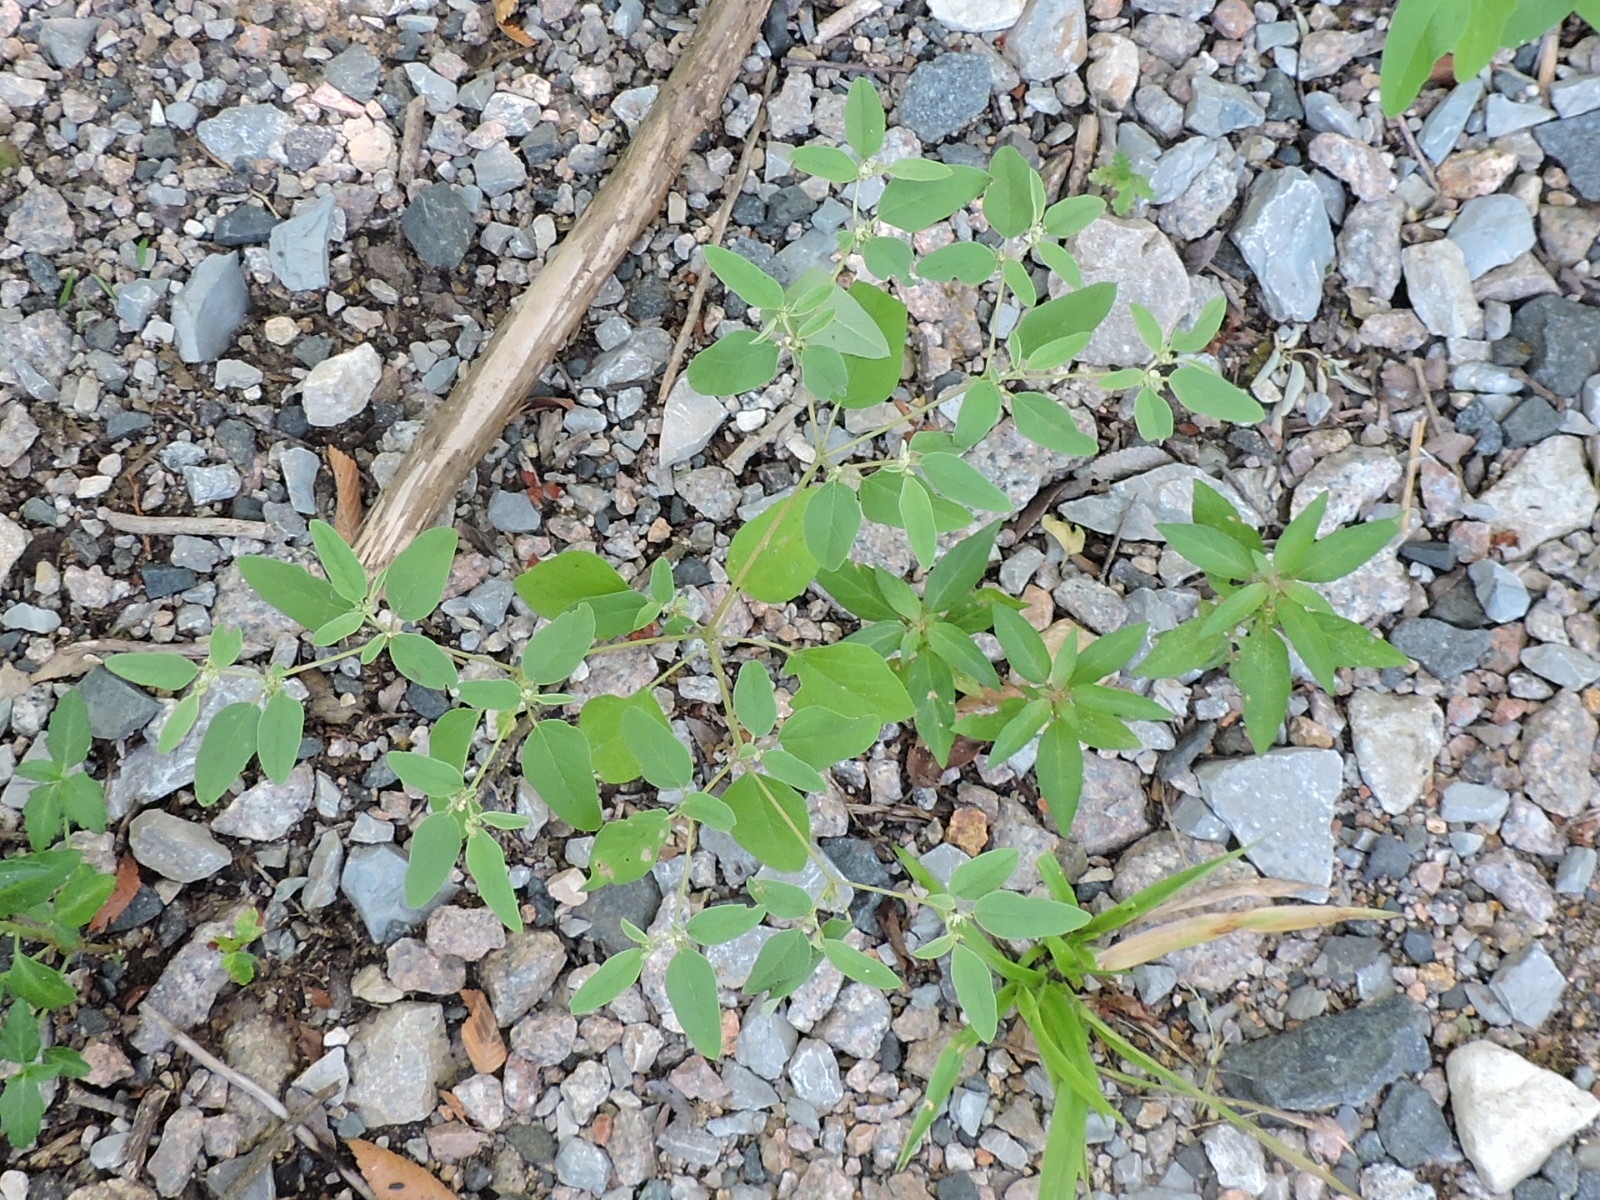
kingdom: Plantae
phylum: Tracheophyta
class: Magnoliopsida
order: Malpighiales
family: Euphorbiaceae
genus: Croton
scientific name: Croton monanthogynus
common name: One-seed croton
